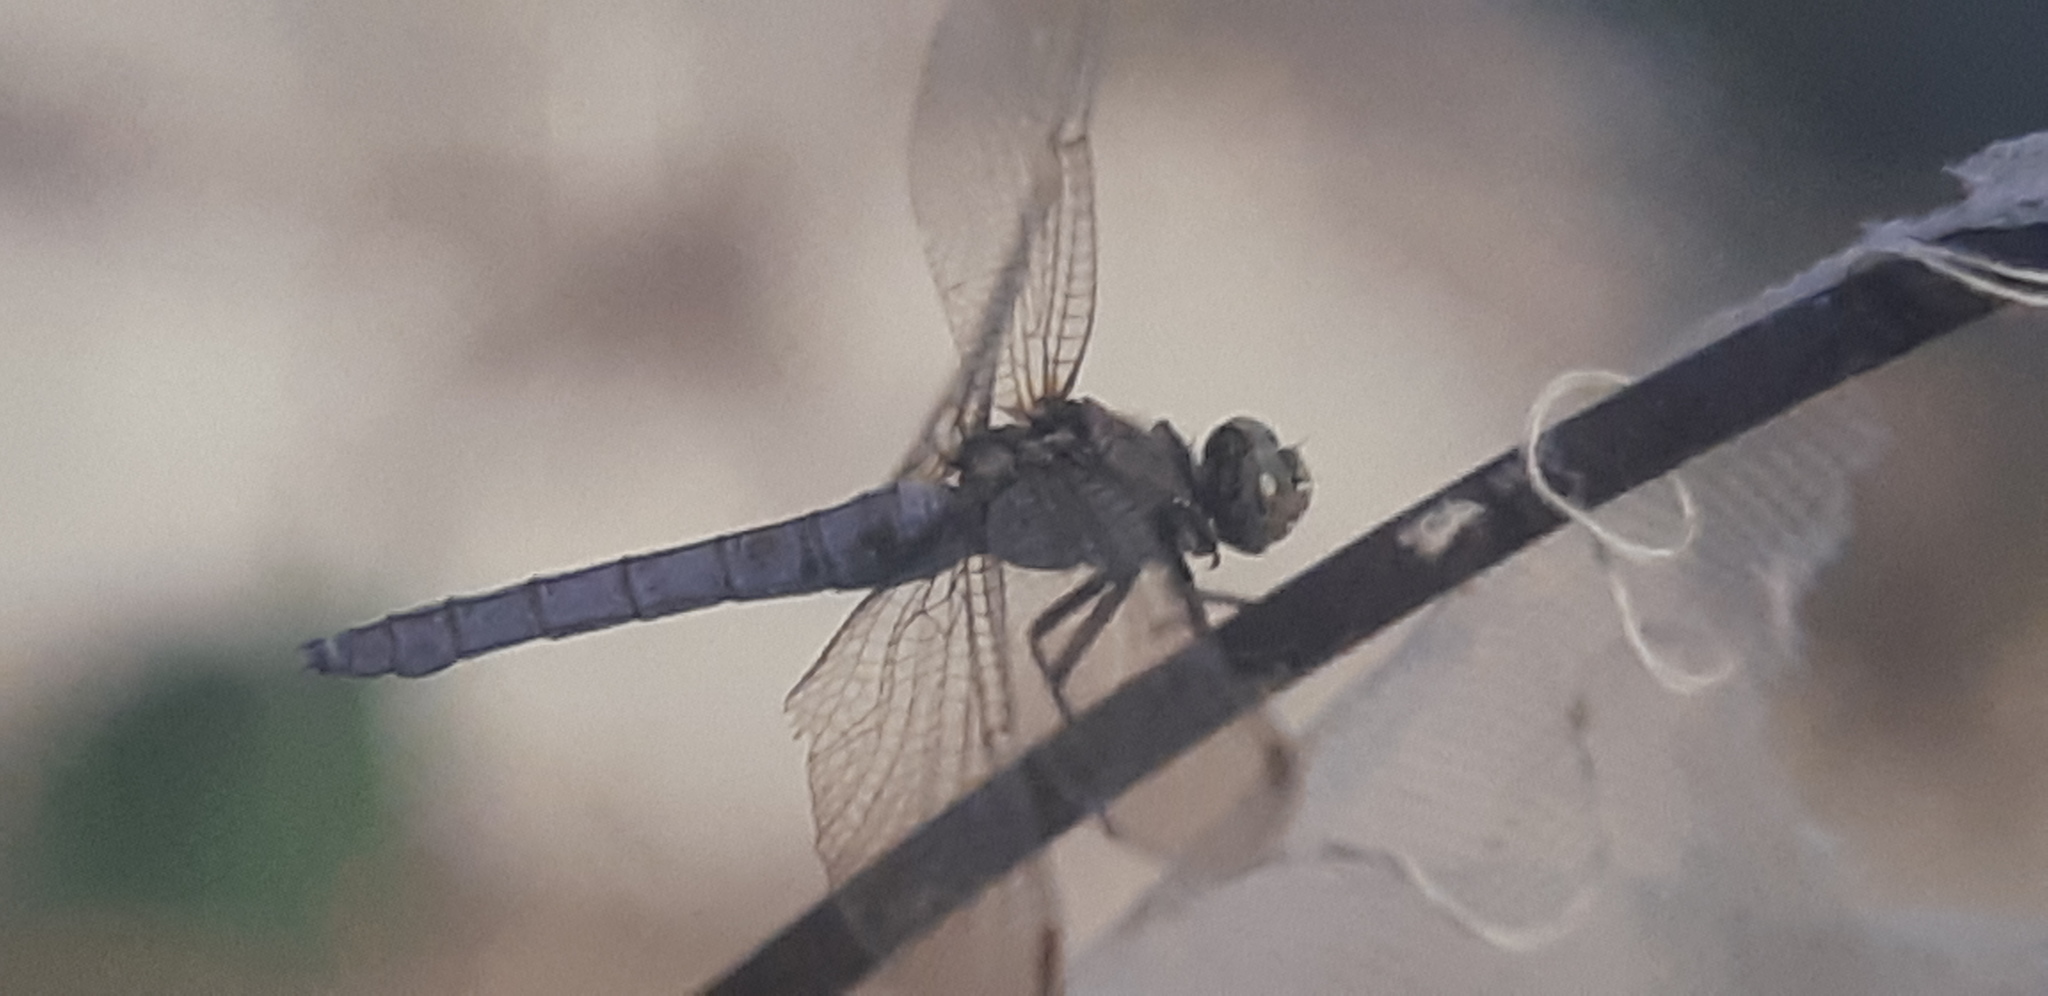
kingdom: Animalia
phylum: Arthropoda
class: Insecta
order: Odonata
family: Libellulidae
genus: Orthetrum
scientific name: Orthetrum coerulescens
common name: Keeled skimmer
